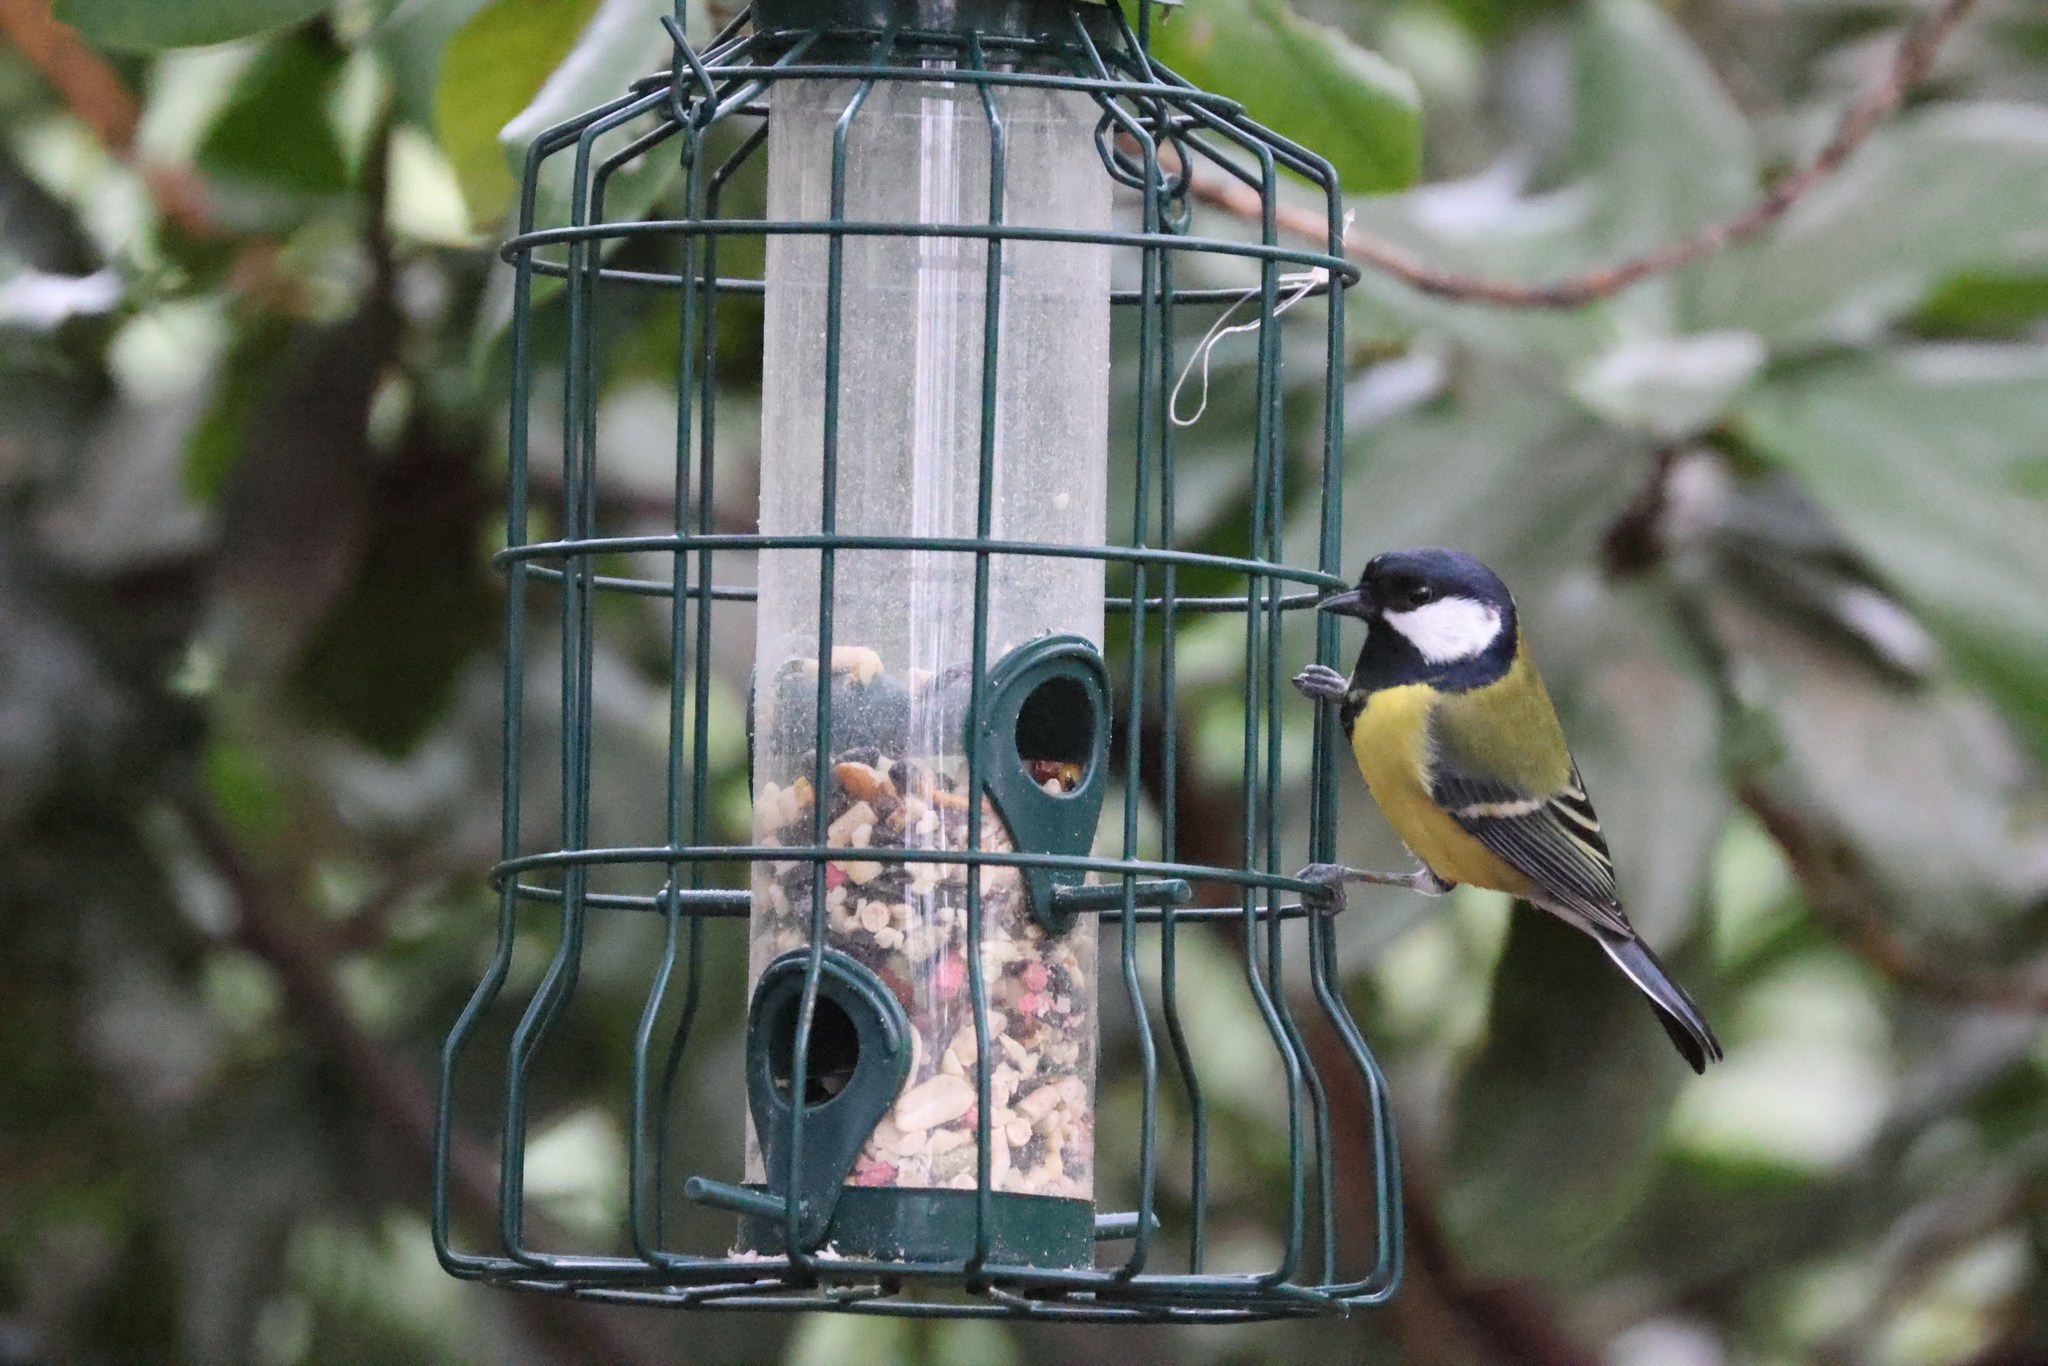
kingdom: Animalia
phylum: Chordata
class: Aves
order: Passeriformes
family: Paridae
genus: Parus
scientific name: Parus major
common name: Great tit
